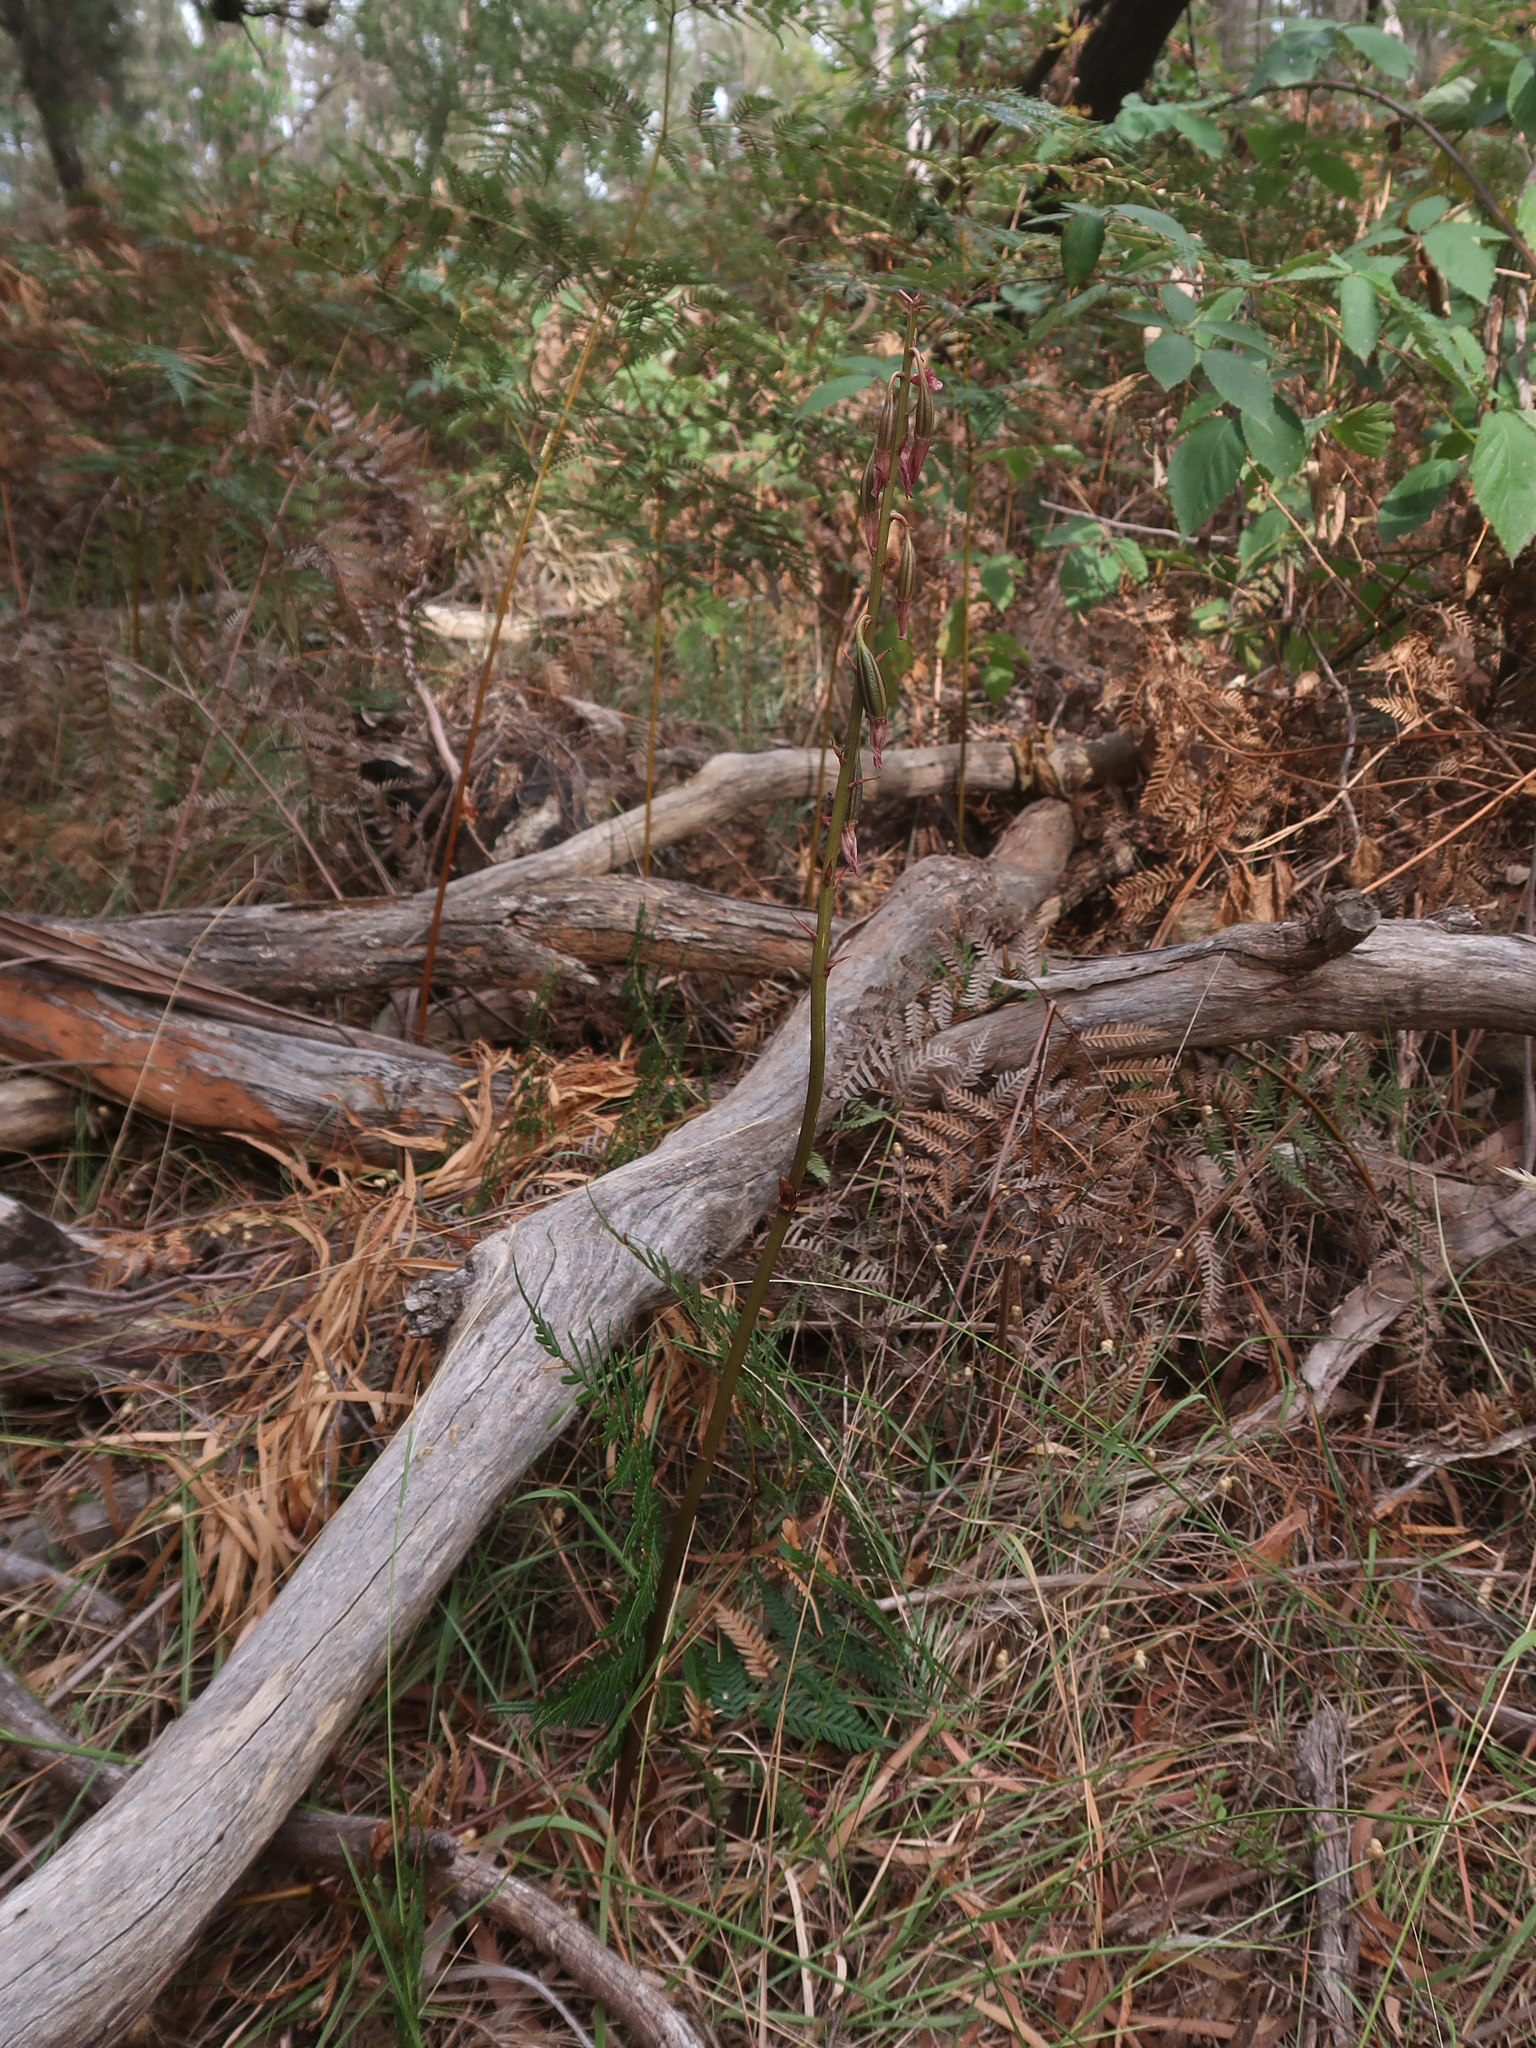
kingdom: Plantae
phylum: Tracheophyta
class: Liliopsida
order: Asparagales
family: Orchidaceae
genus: Dipodium
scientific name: Dipodium roseum
